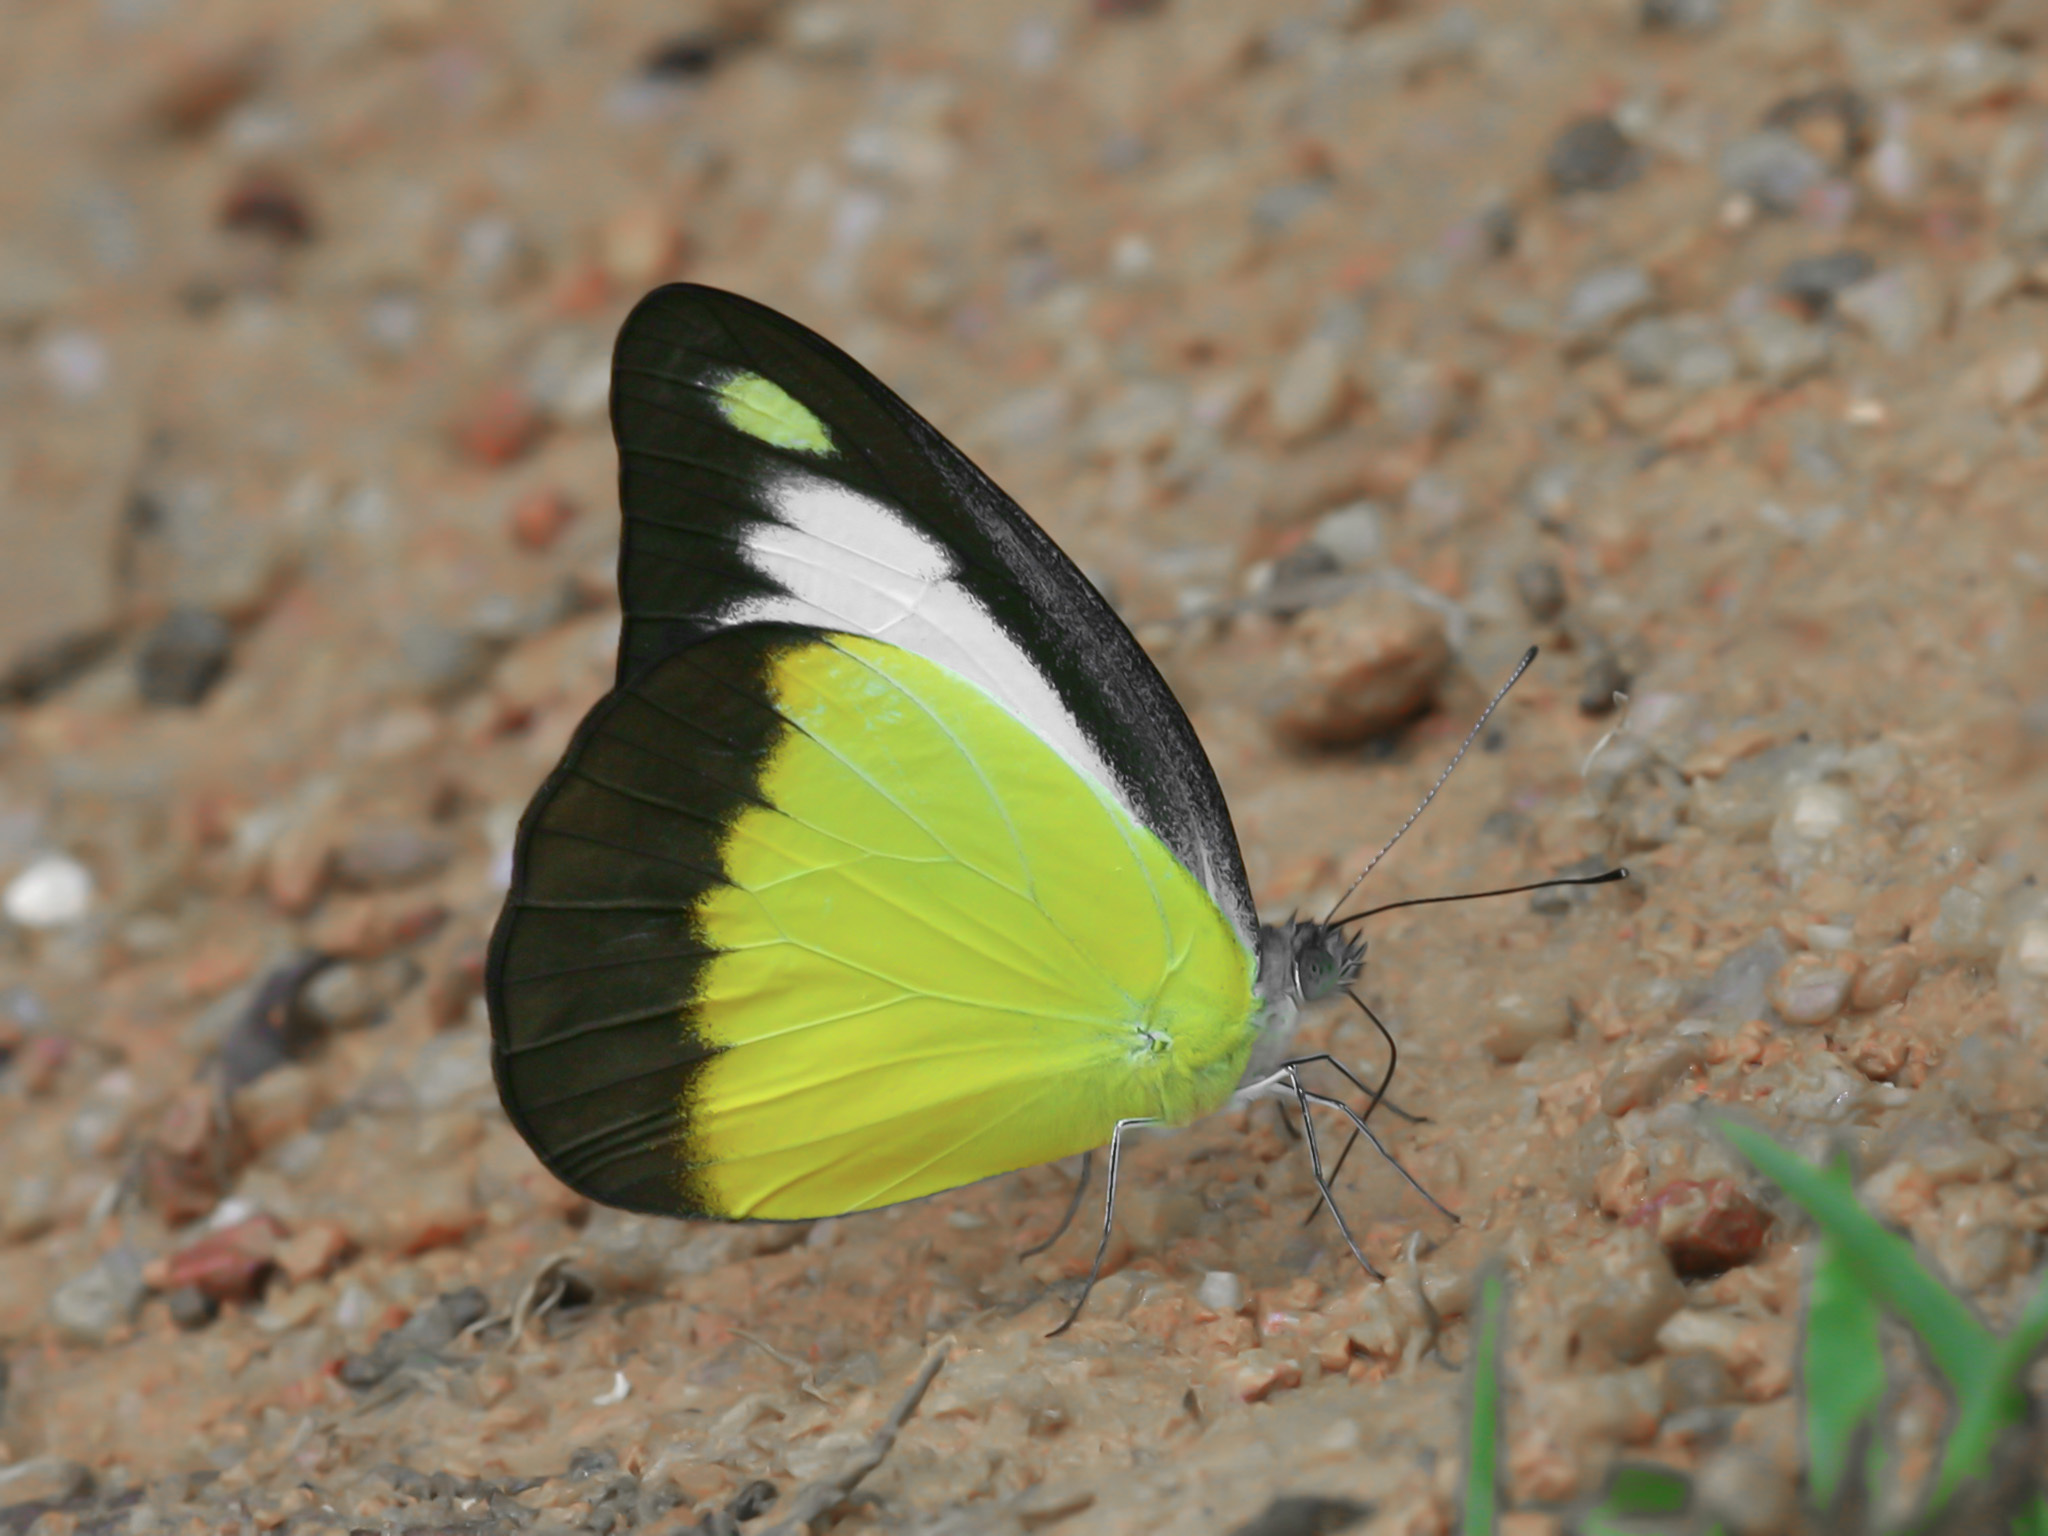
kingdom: Animalia
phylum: Arthropoda
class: Insecta
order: Lepidoptera
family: Pieridae
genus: Appias
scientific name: Appias lyncida
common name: Chocolate albatross
